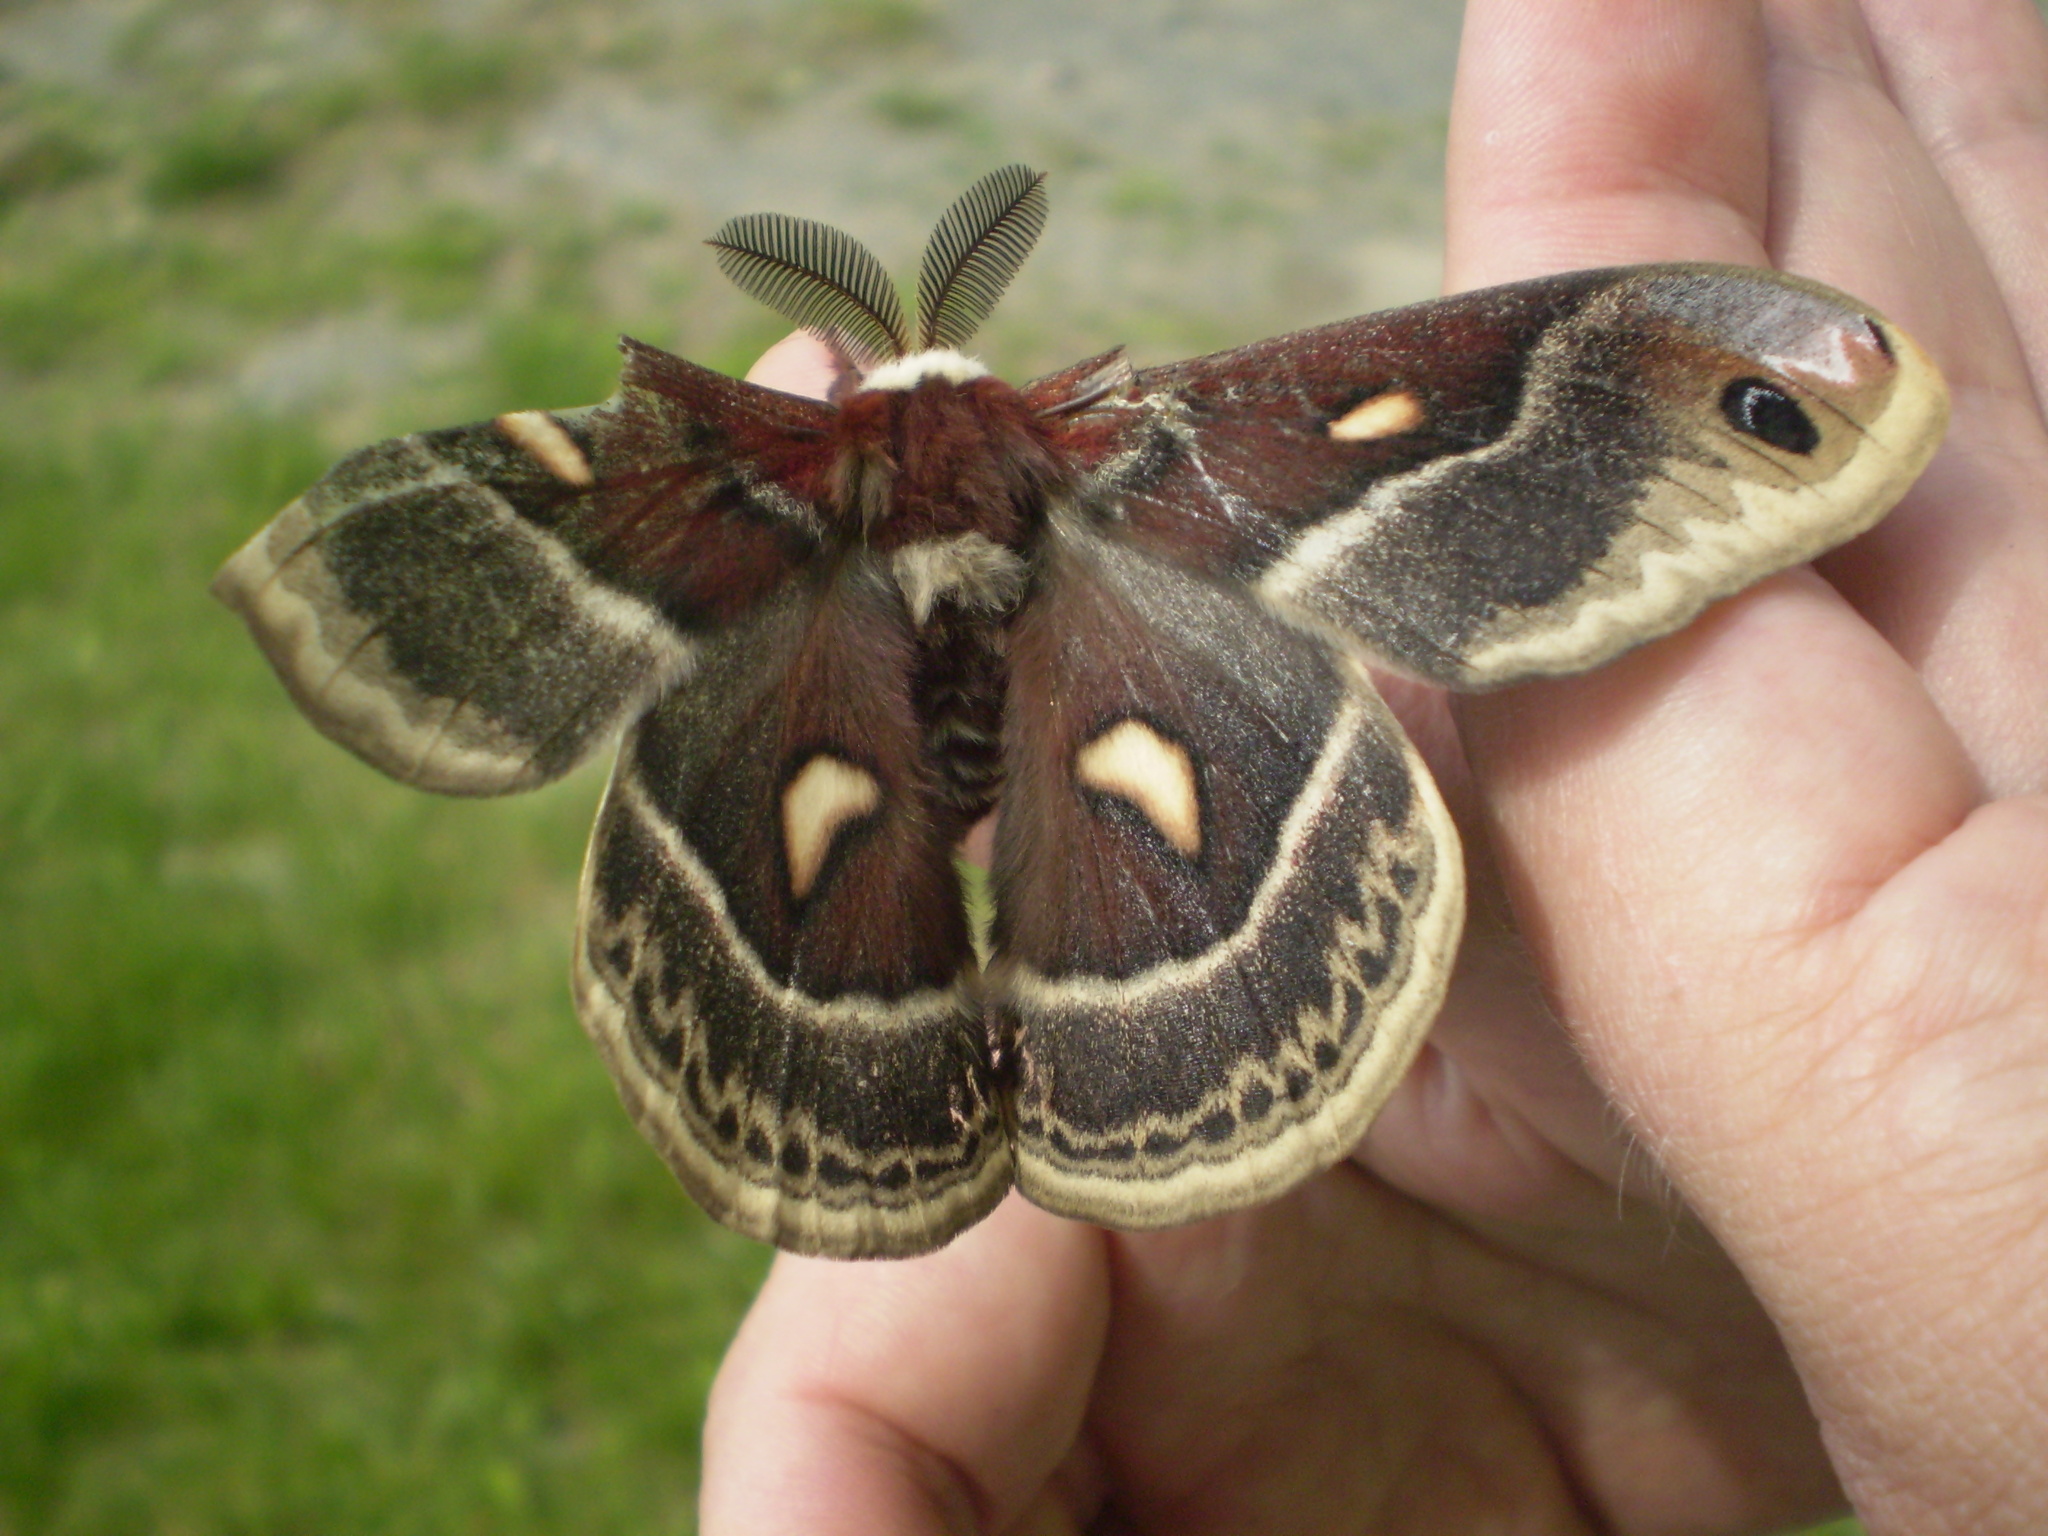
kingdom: Animalia
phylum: Arthropoda
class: Insecta
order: Lepidoptera
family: Saturniidae
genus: Hyalophora
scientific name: Hyalophora columbia
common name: Columbia silkmoth
